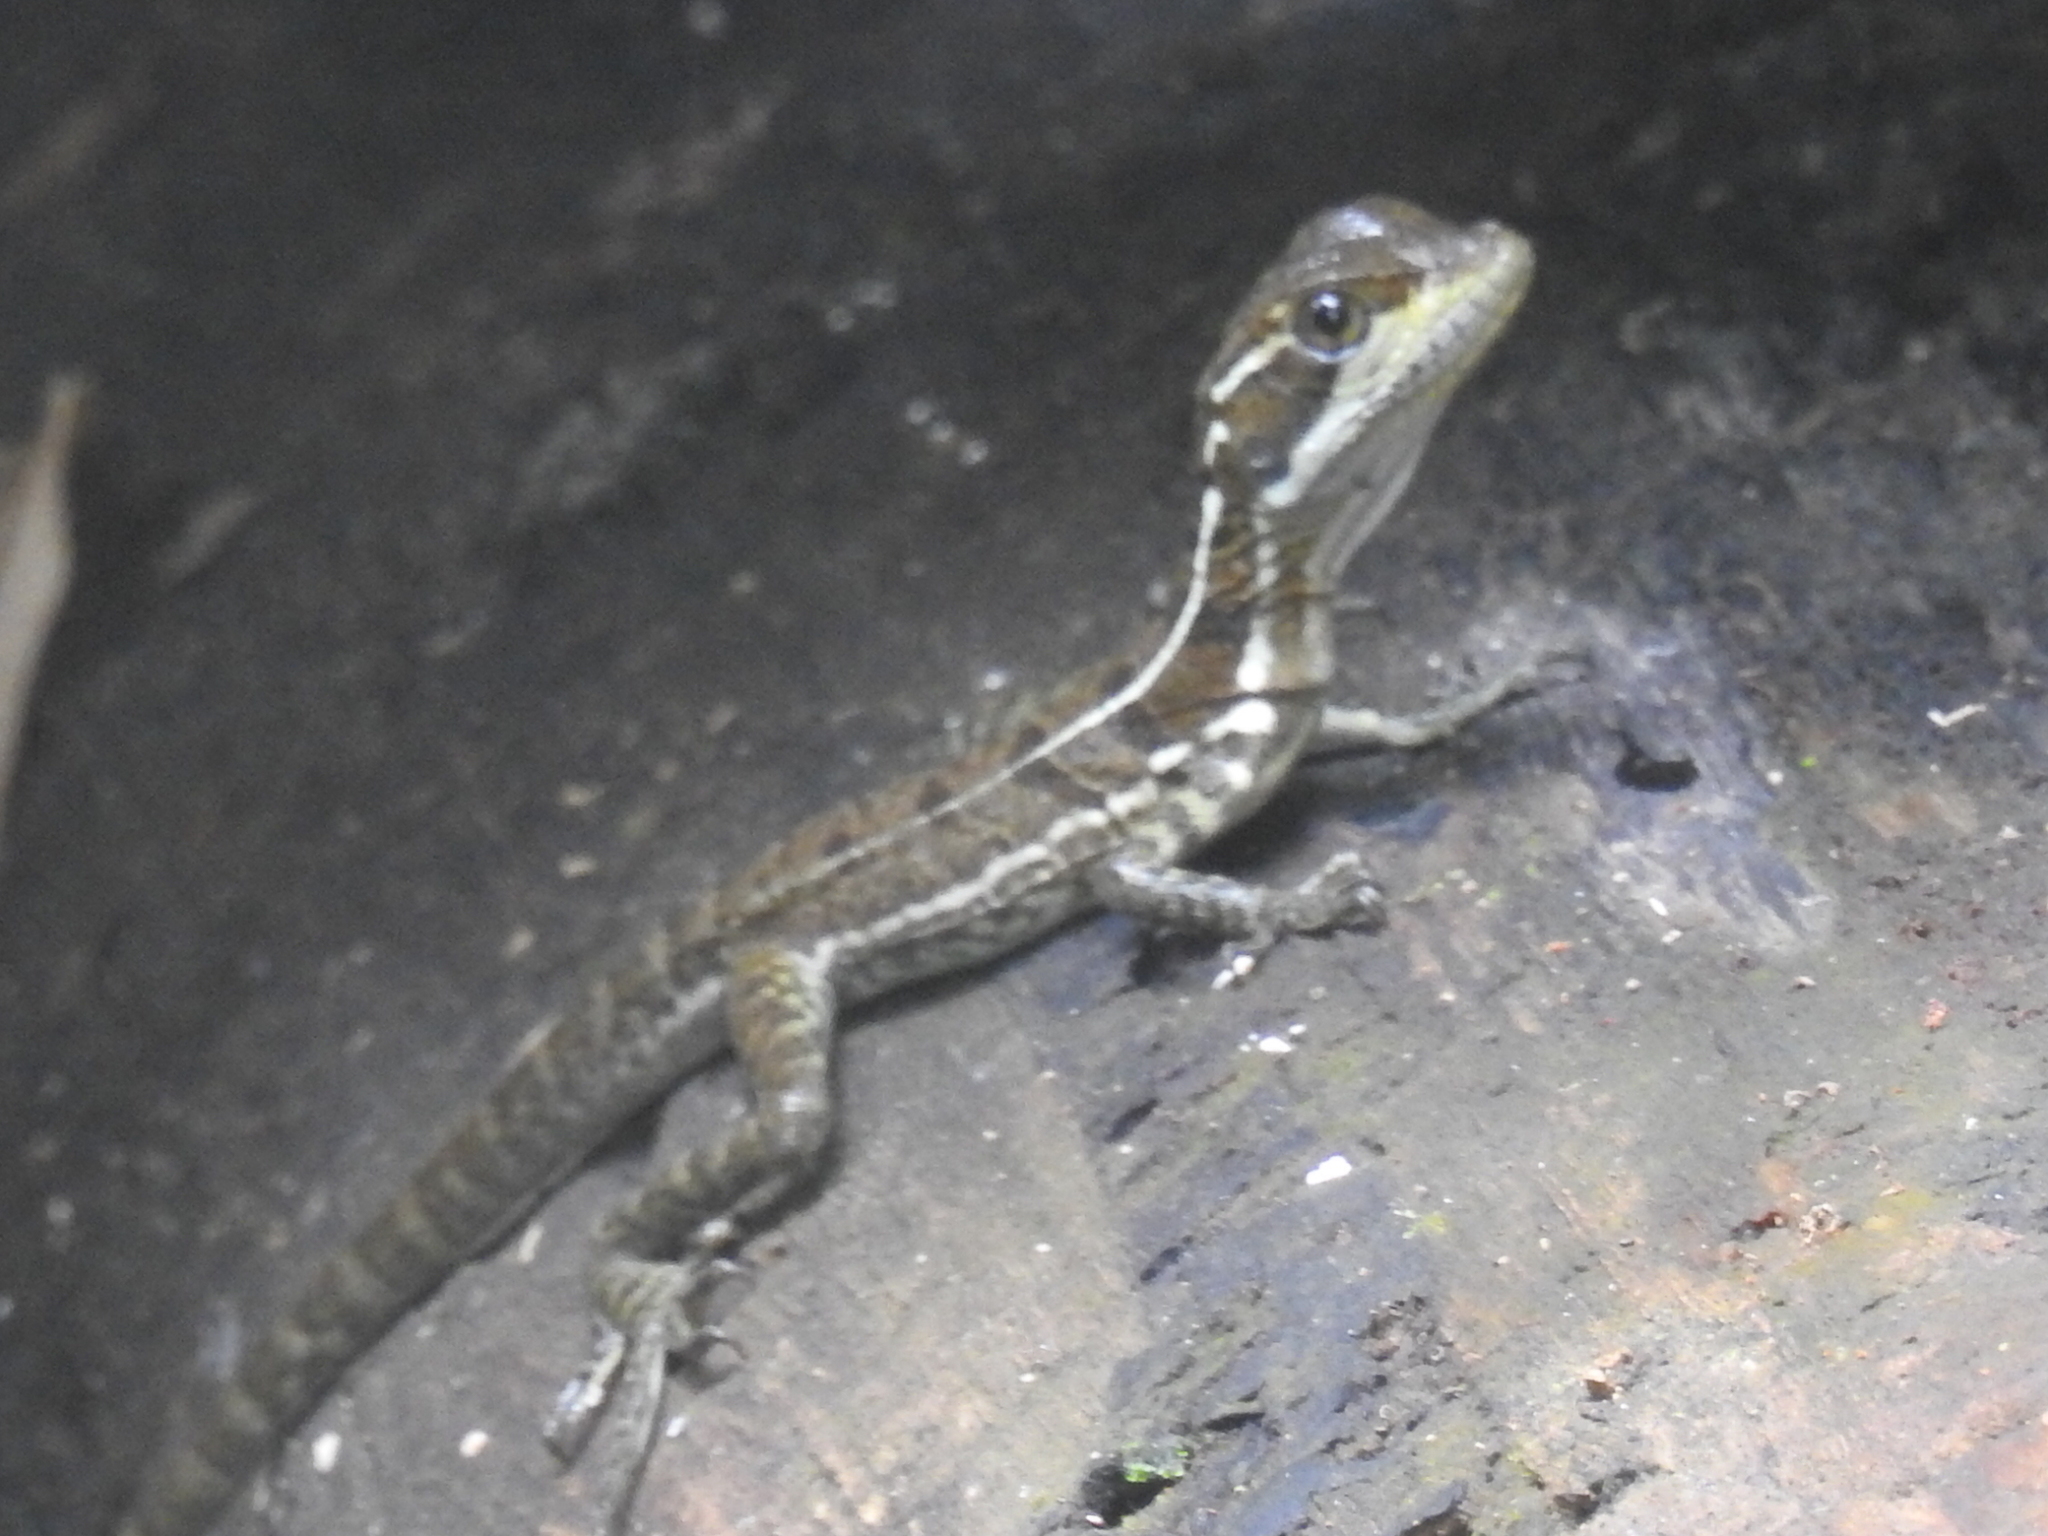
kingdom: Animalia
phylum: Chordata
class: Squamata
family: Corytophanidae
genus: Basiliscus
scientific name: Basiliscus basiliscus
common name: Common basilisk
